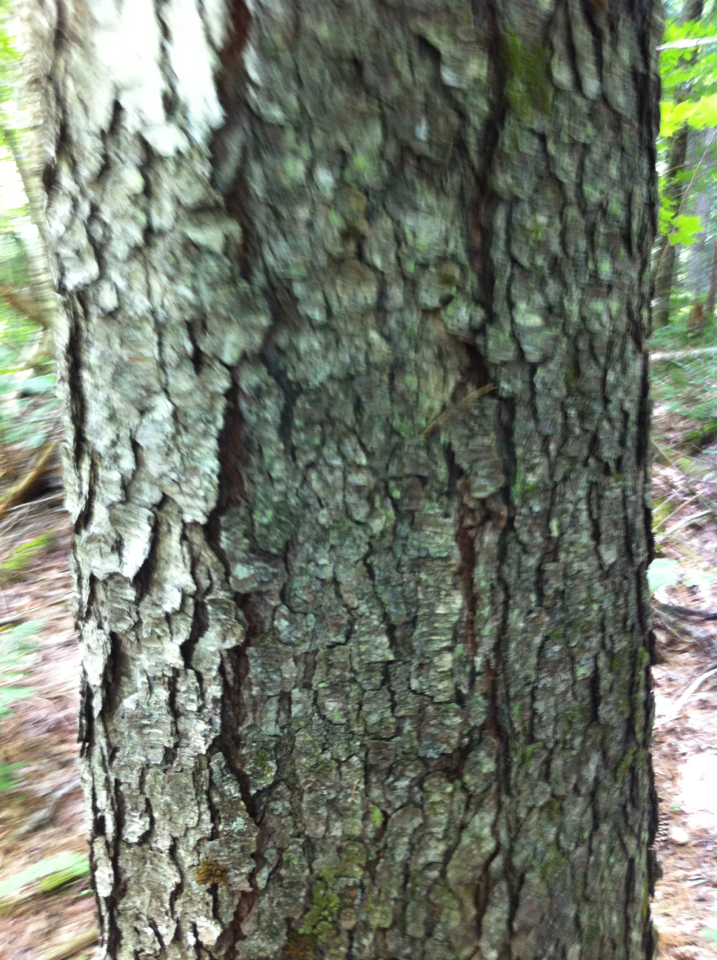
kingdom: Plantae
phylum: Tracheophyta
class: Magnoliopsida
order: Rosales
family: Rosaceae
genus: Prunus
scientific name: Prunus serotina
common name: Black cherry
